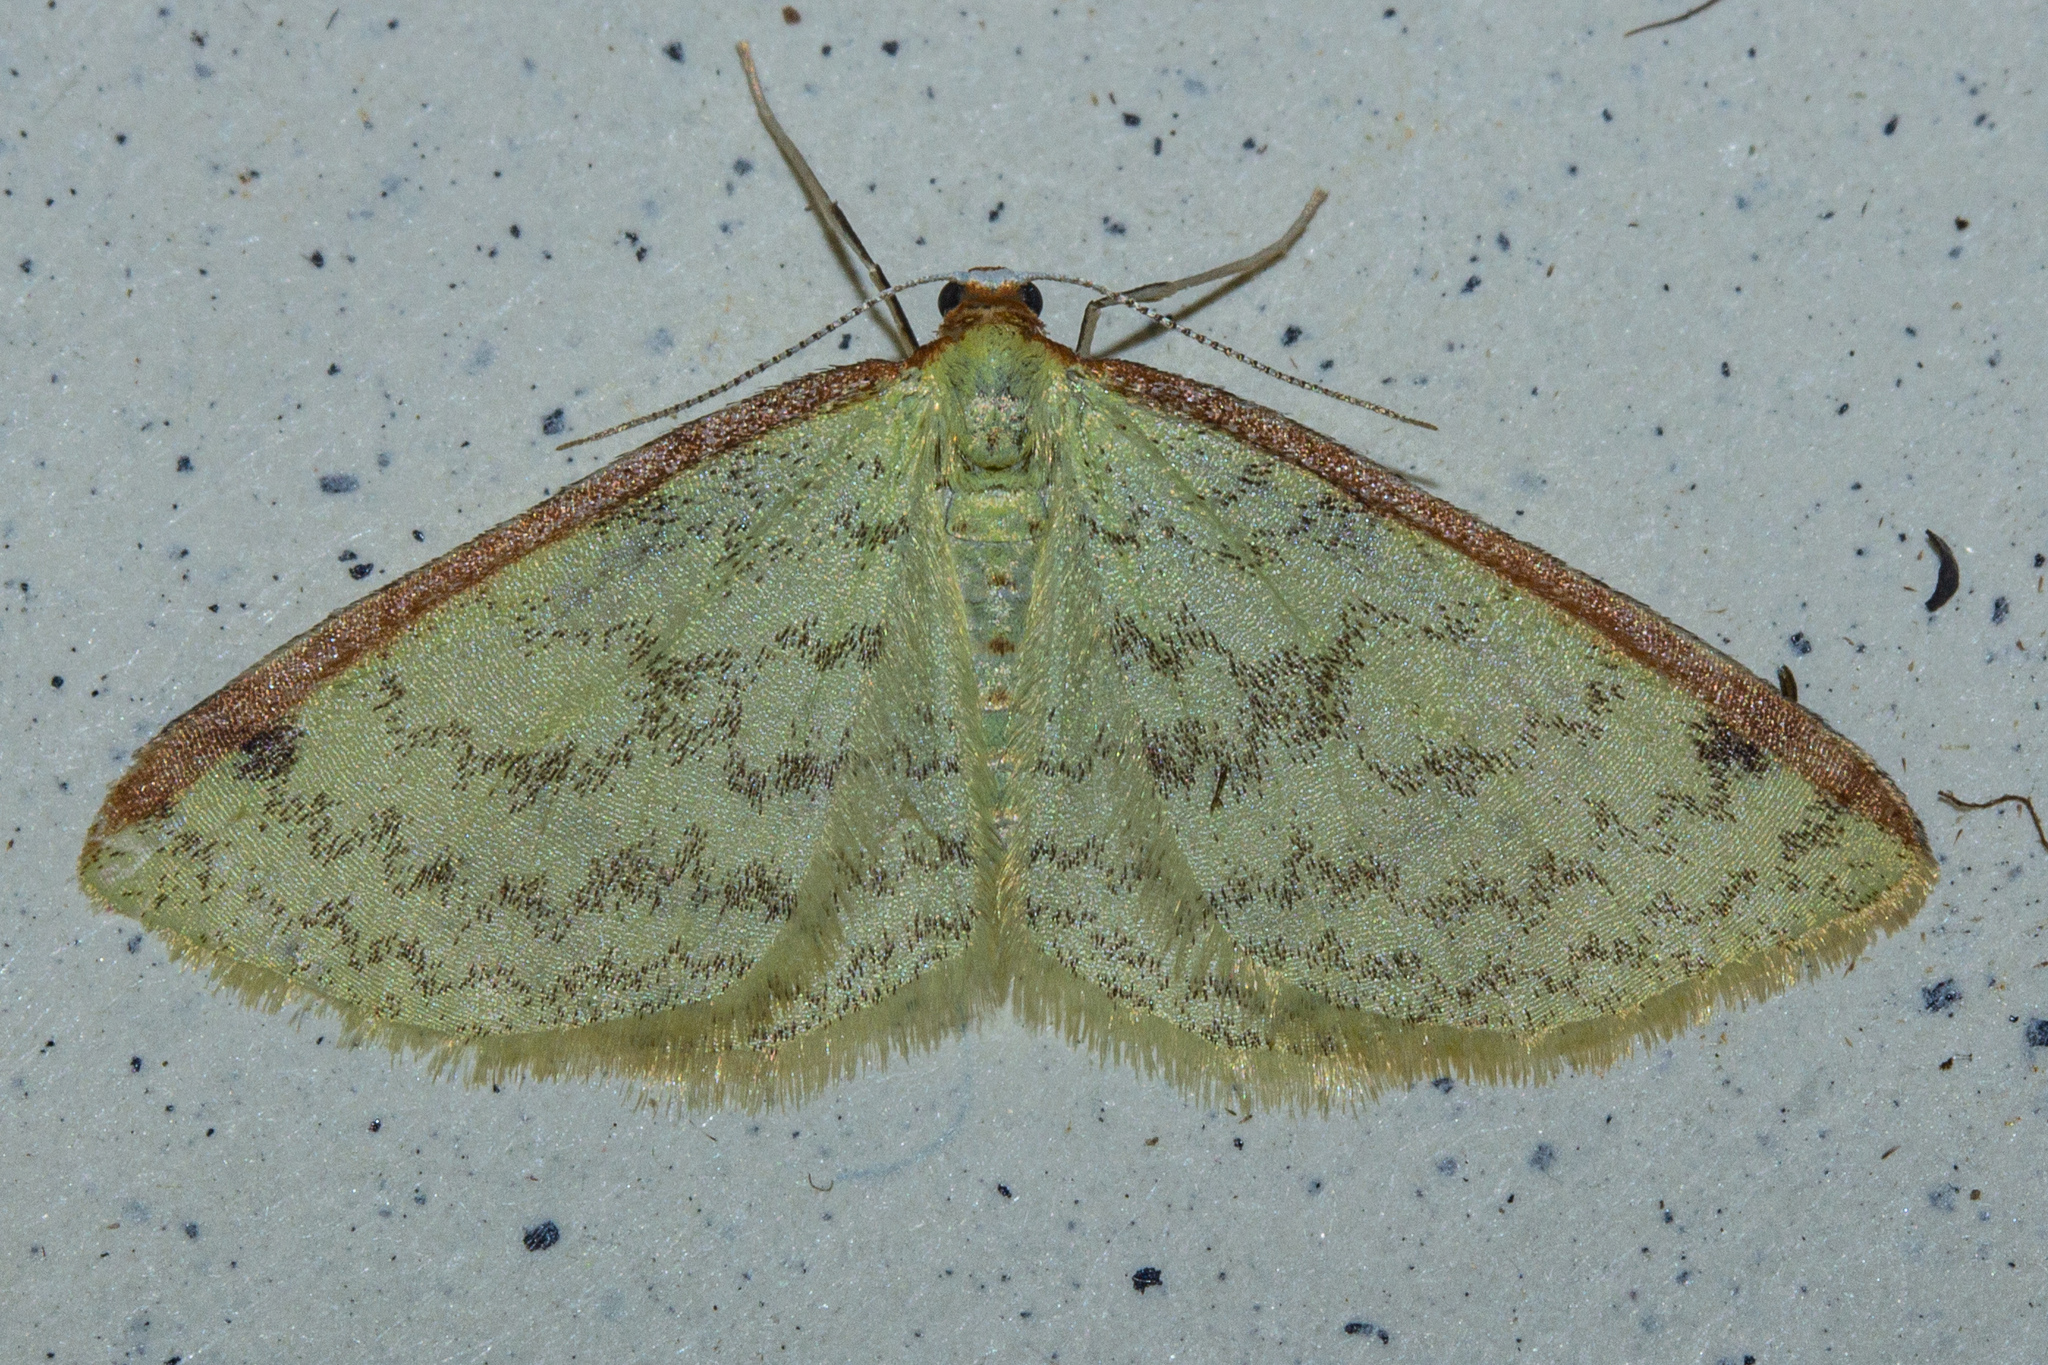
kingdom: Animalia
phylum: Arthropoda
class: Insecta
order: Lepidoptera
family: Geometridae
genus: Epiphryne
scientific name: Epiphryne undosata
